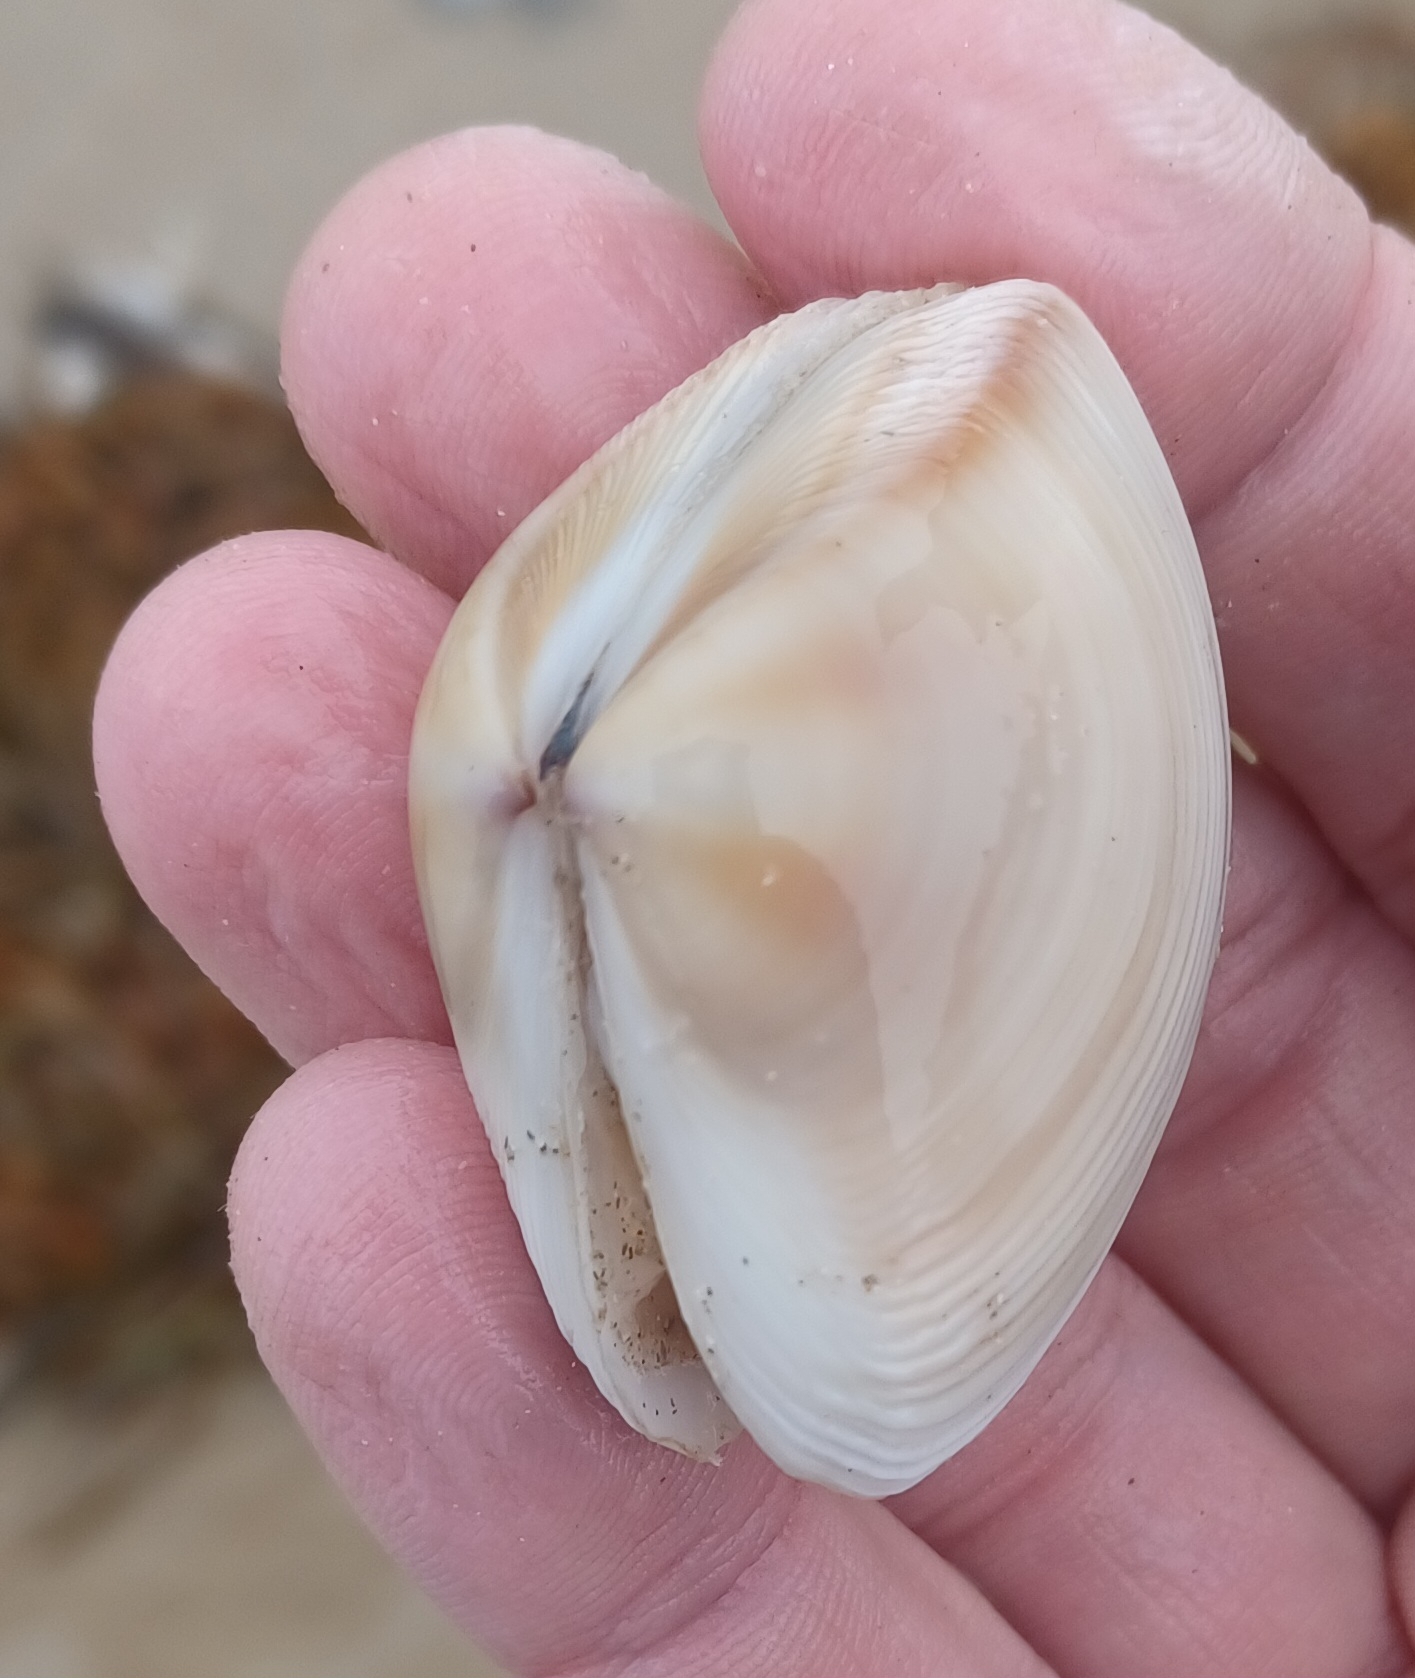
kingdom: Animalia
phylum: Mollusca
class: Bivalvia
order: Venerida
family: Mactridae
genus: Austromactra
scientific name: Austromactra rufescens
